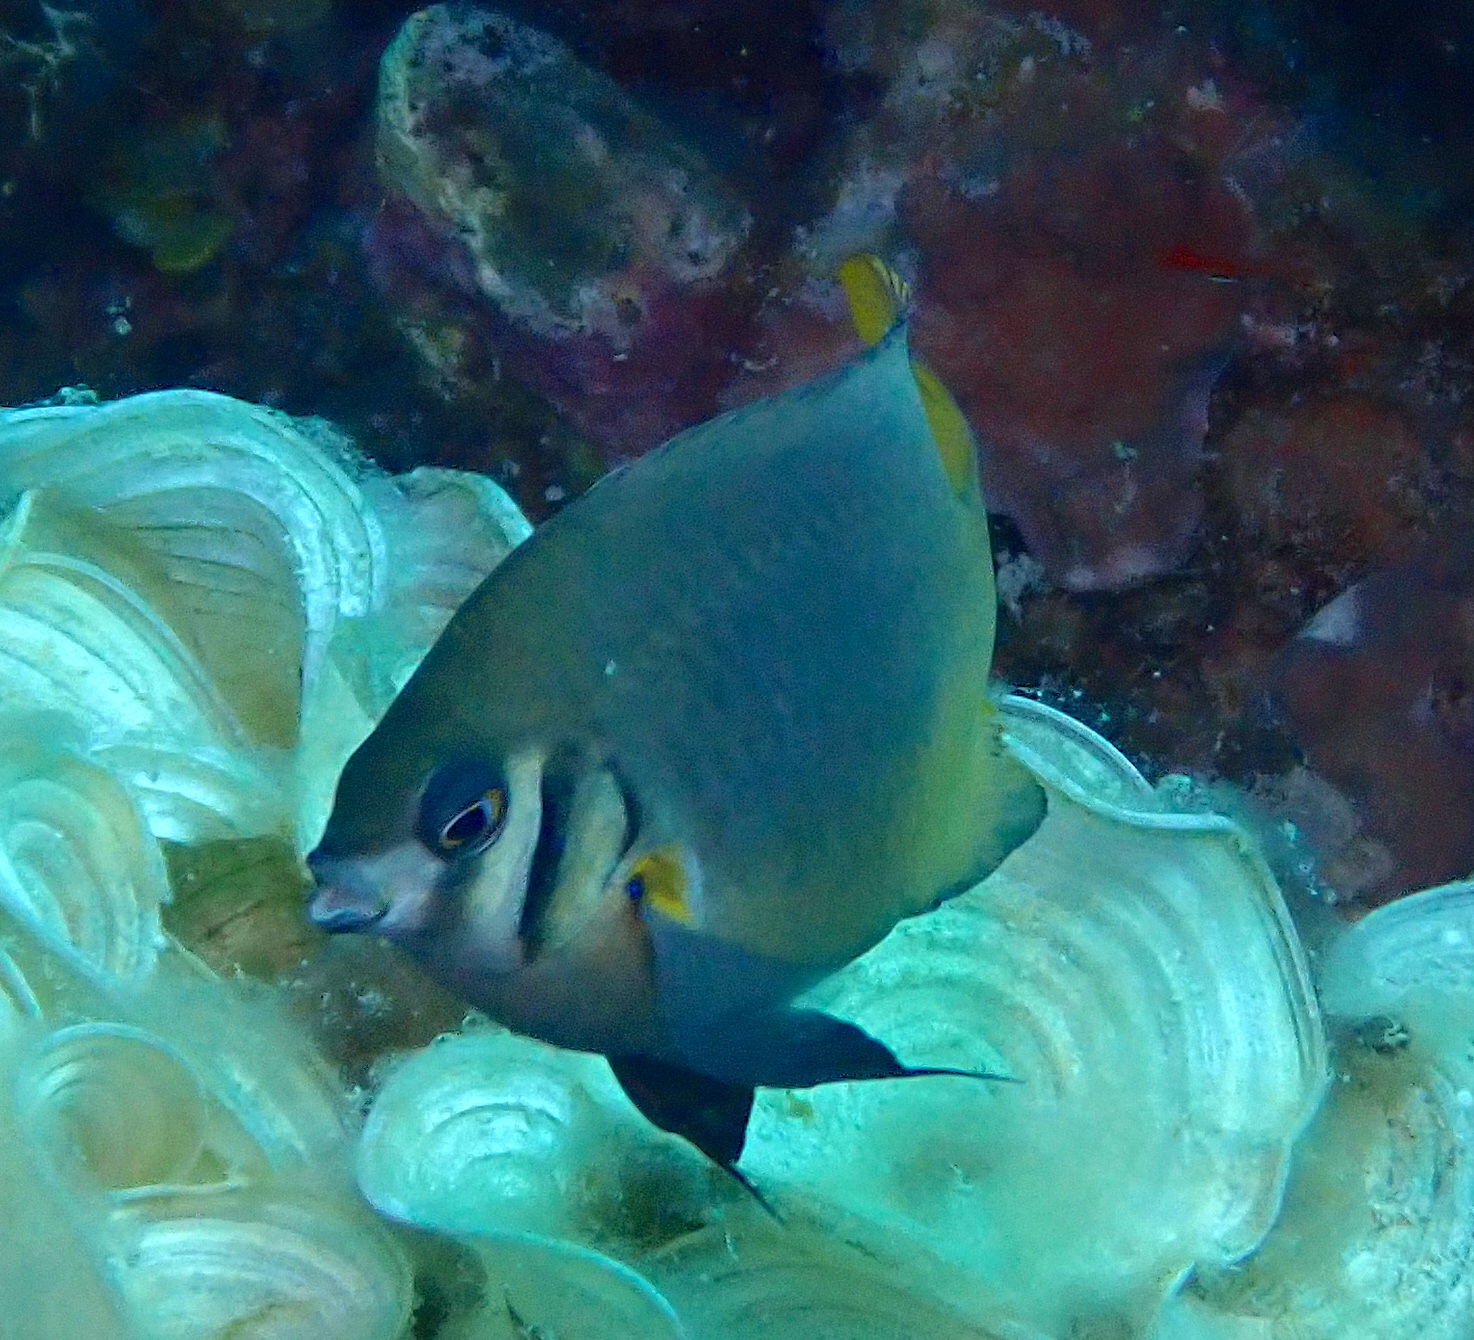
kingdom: Animalia
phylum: Chordata
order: Perciformes
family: Pomacentridae
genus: Neoglyphidodon
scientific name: Neoglyphidodon nigroris
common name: Behn's damsel
